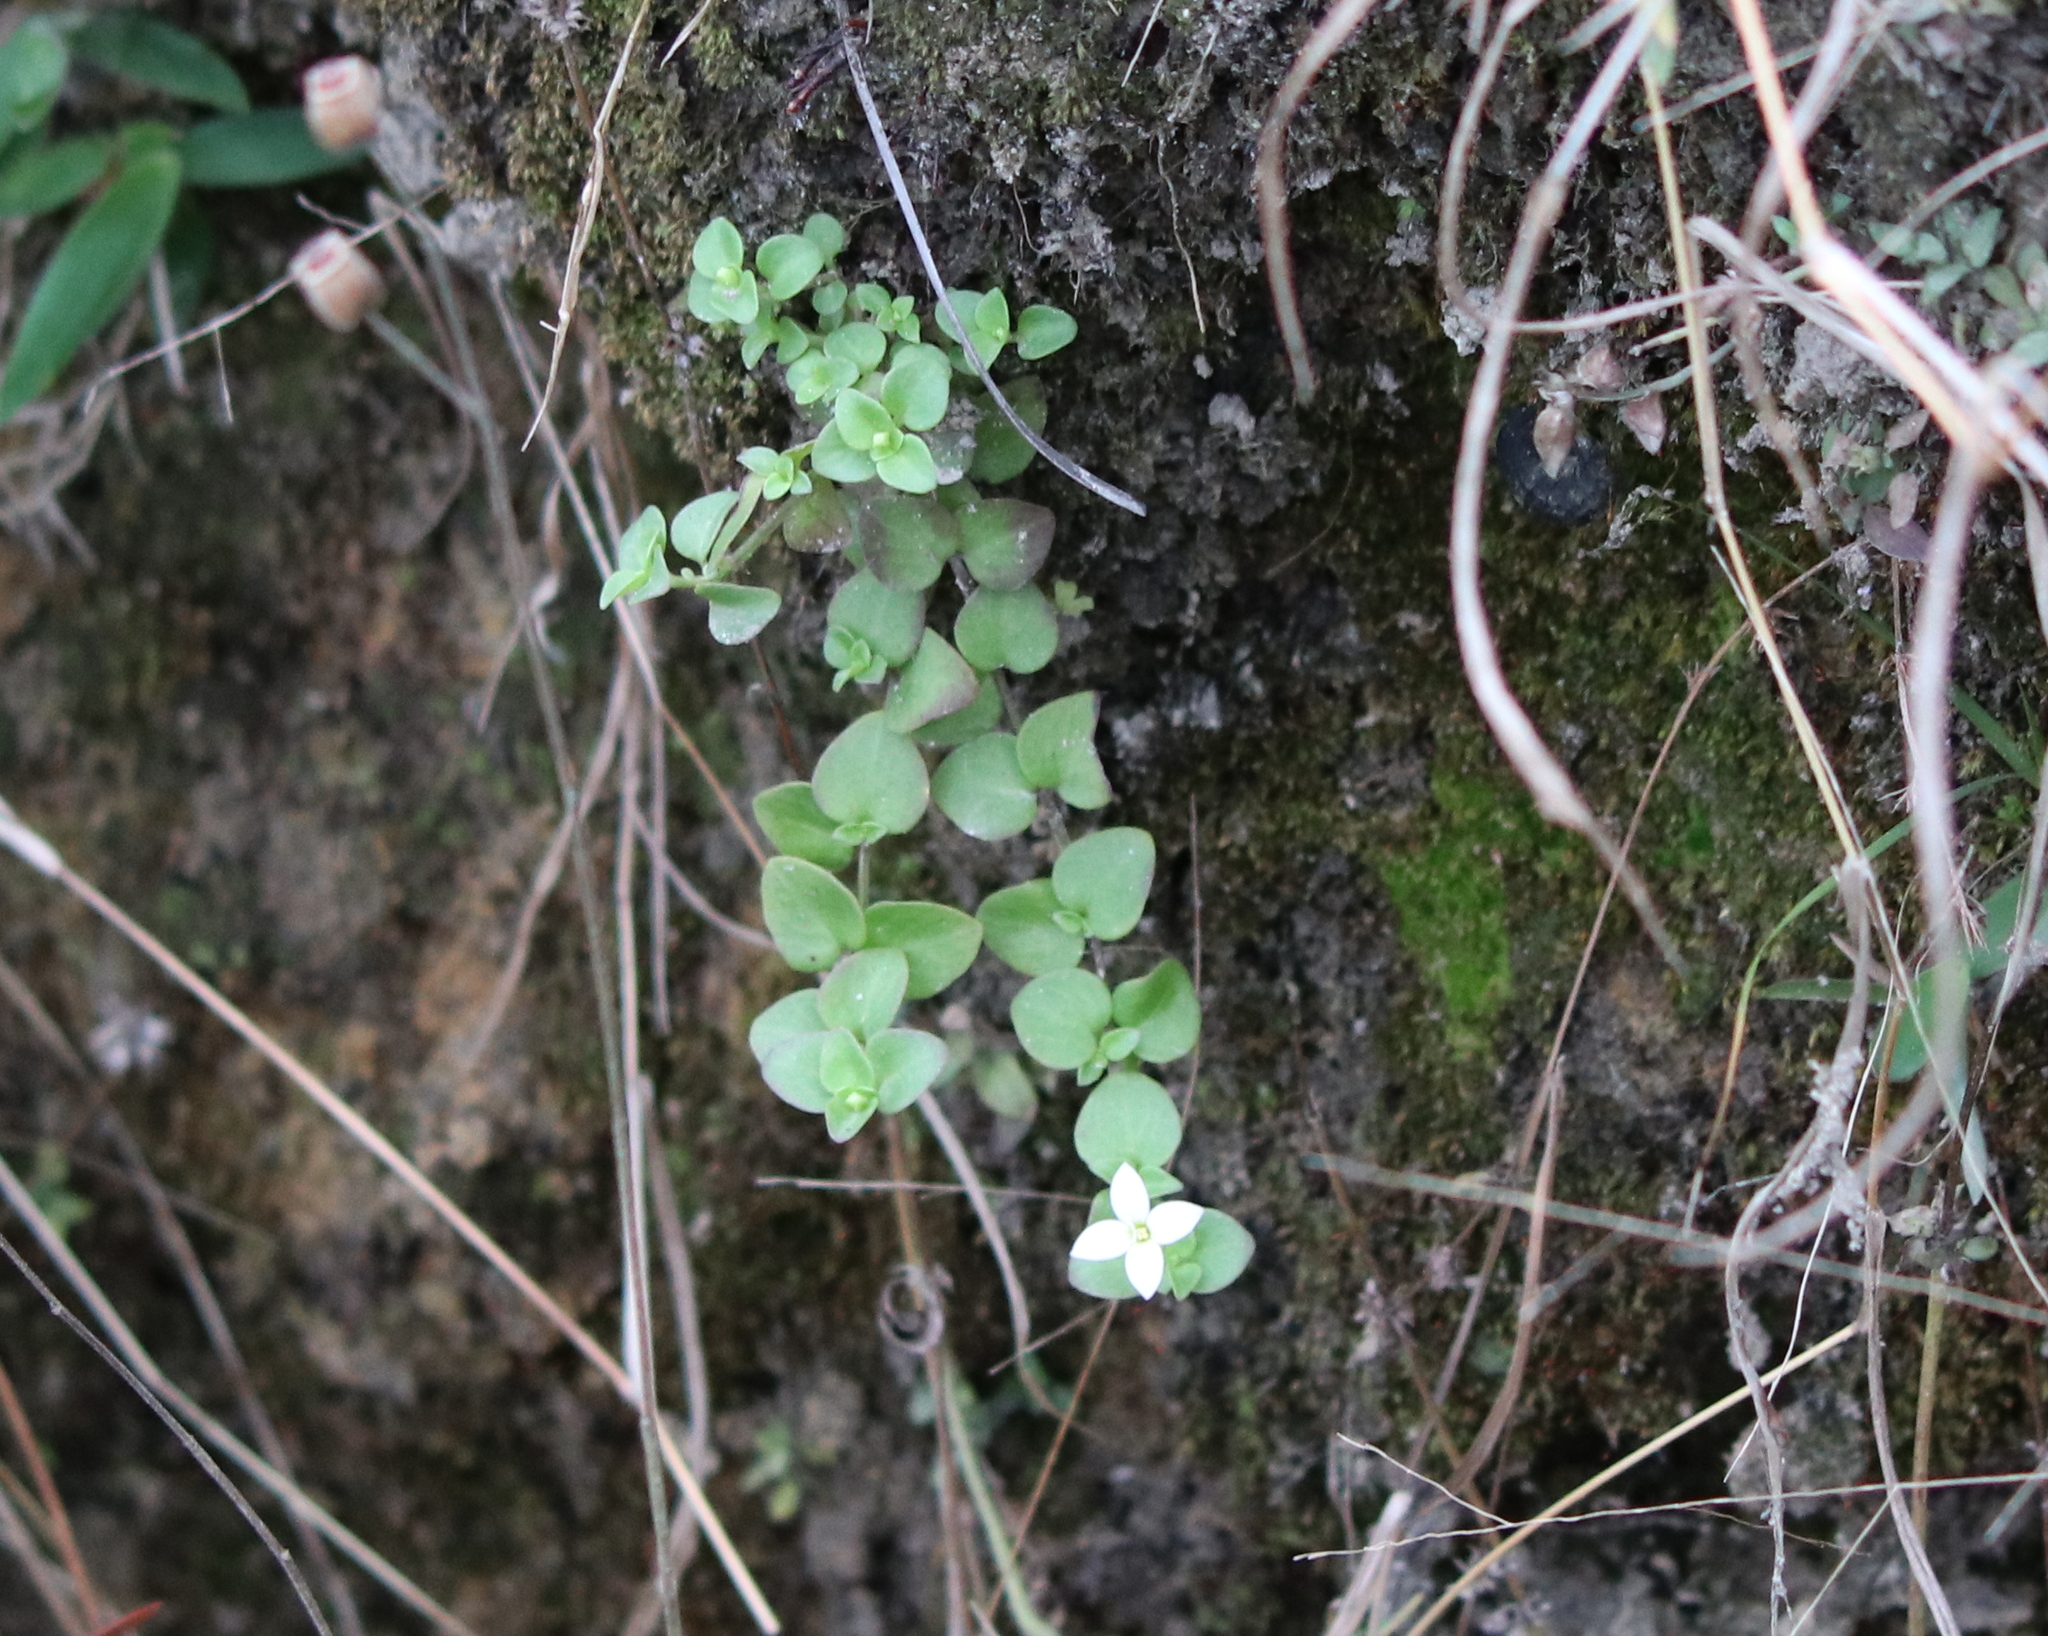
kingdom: Plantae
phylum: Tracheophyta
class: Magnoliopsida
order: Gentianales
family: Rubiaceae
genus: Houstonia
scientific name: Houstonia procumbens
